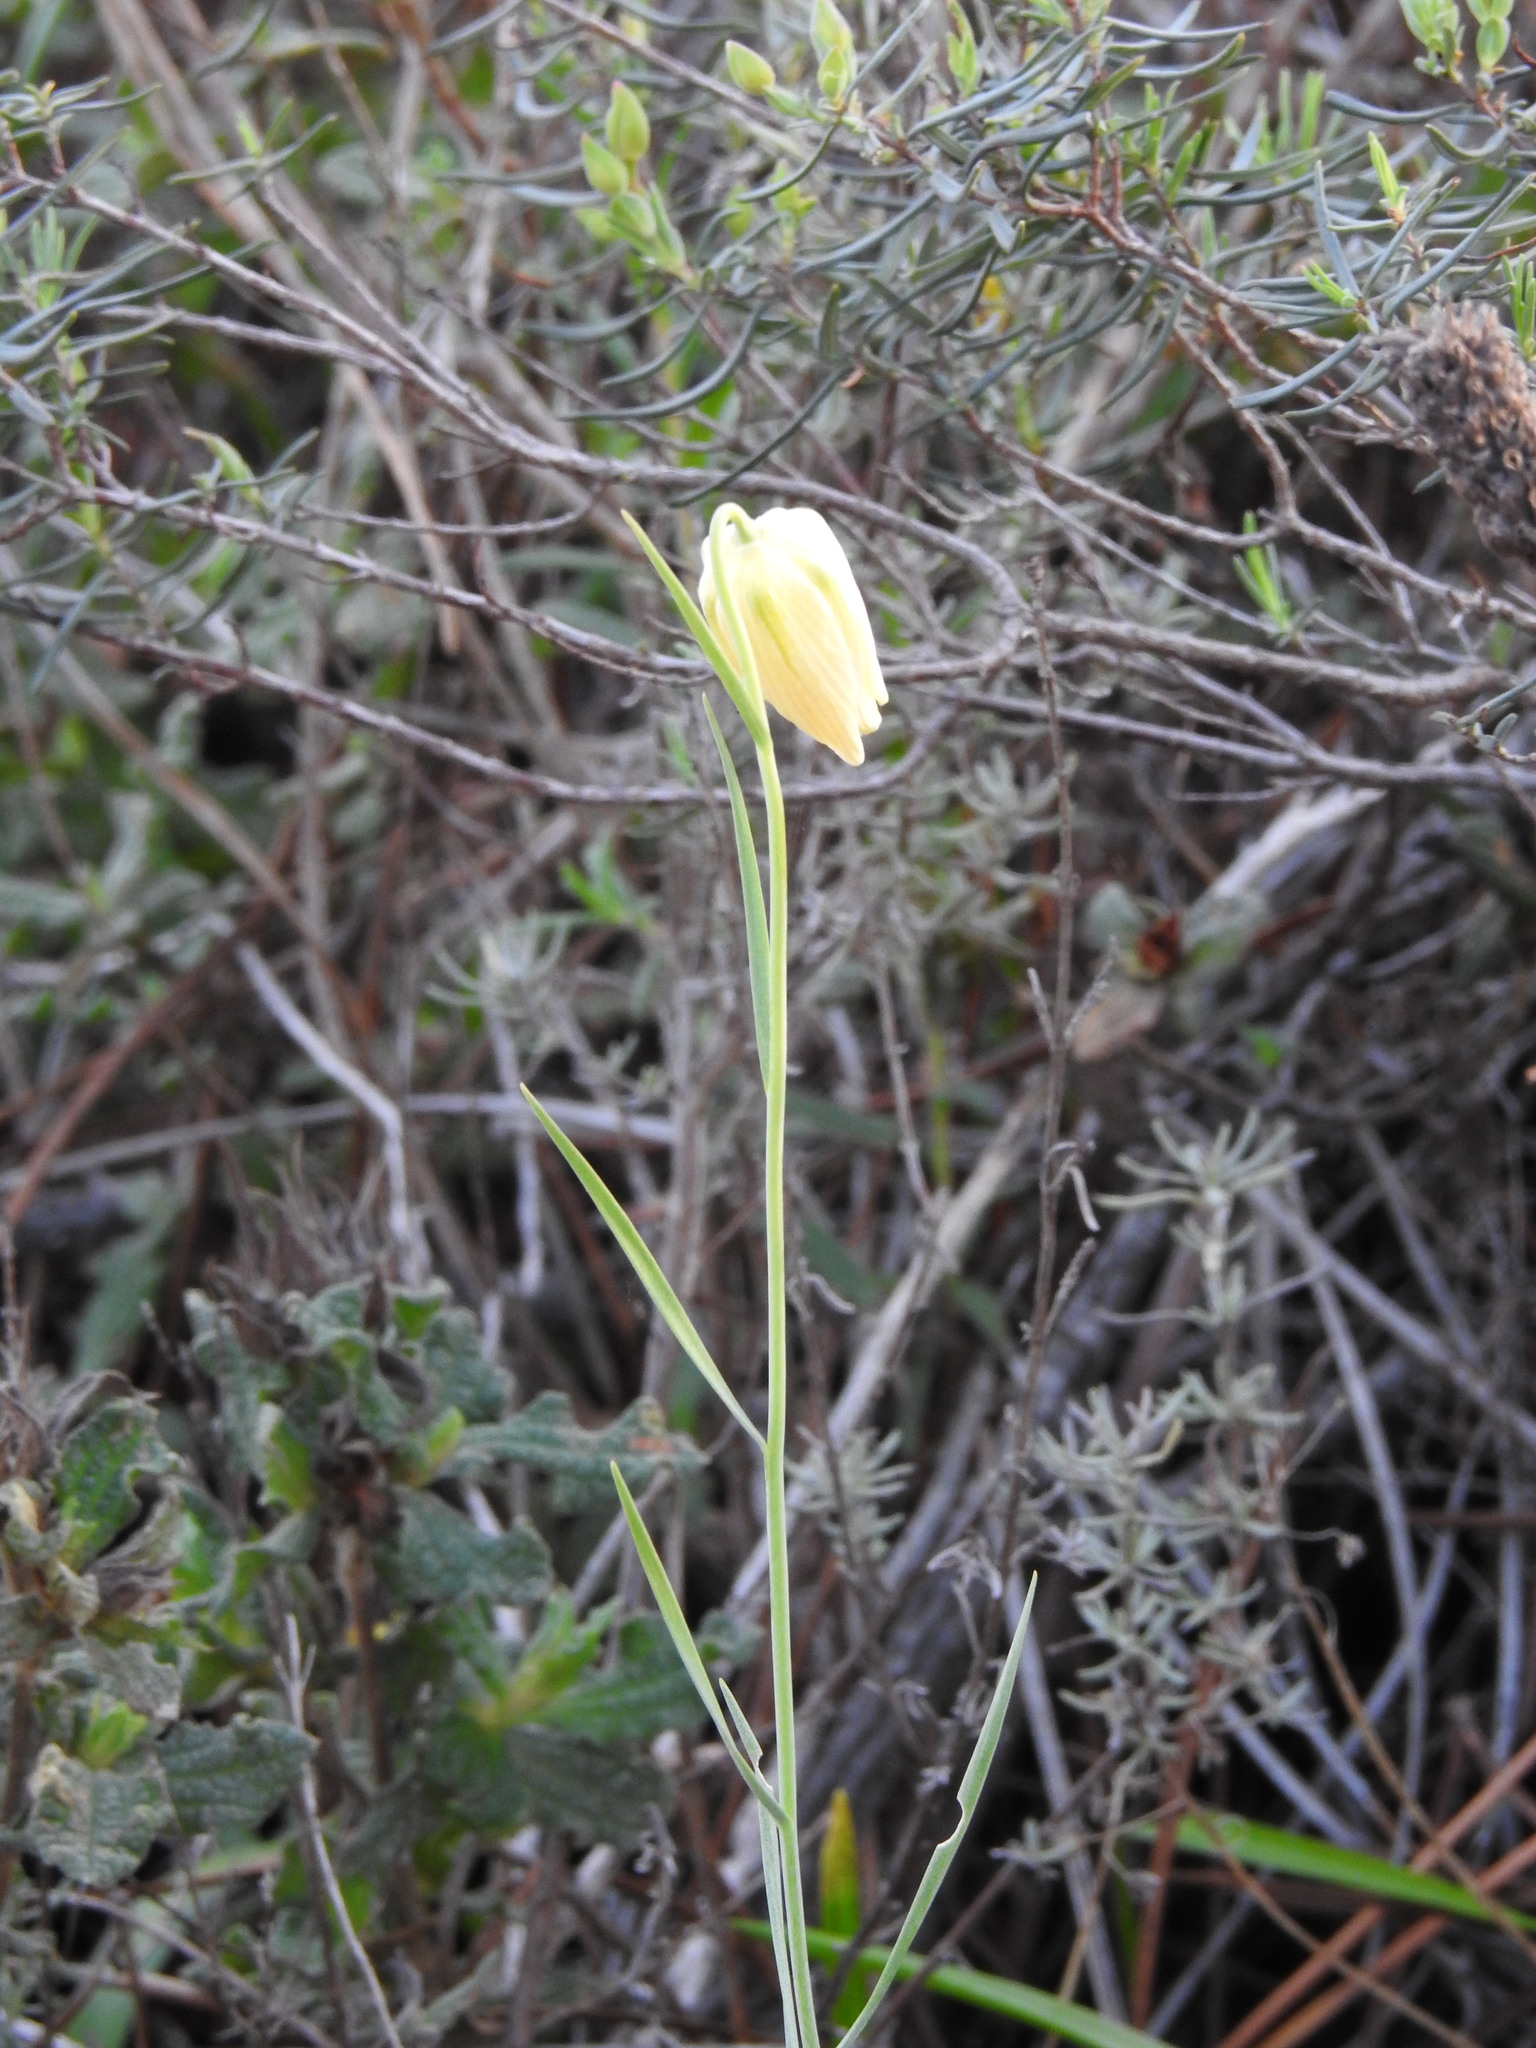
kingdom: Plantae
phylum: Tracheophyta
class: Liliopsida
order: Liliales
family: Liliaceae
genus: Fritillaria
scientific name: Fritillaria lusitanica
